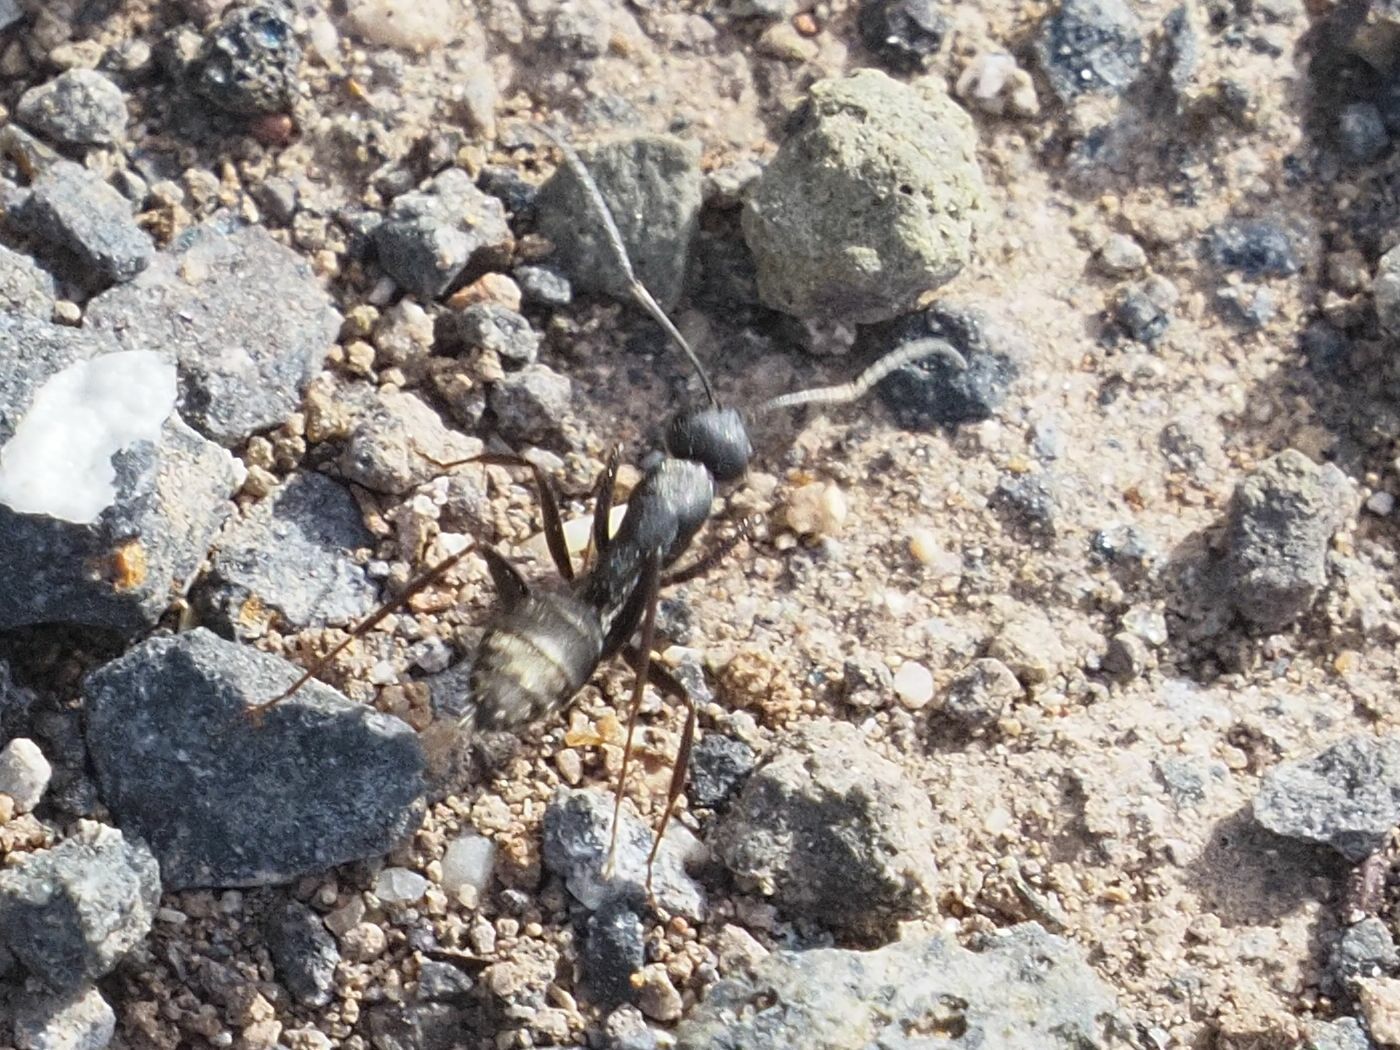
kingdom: Animalia
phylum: Arthropoda
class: Insecta
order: Hymenoptera
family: Formicidae
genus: Camponotus
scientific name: Camponotus feai
